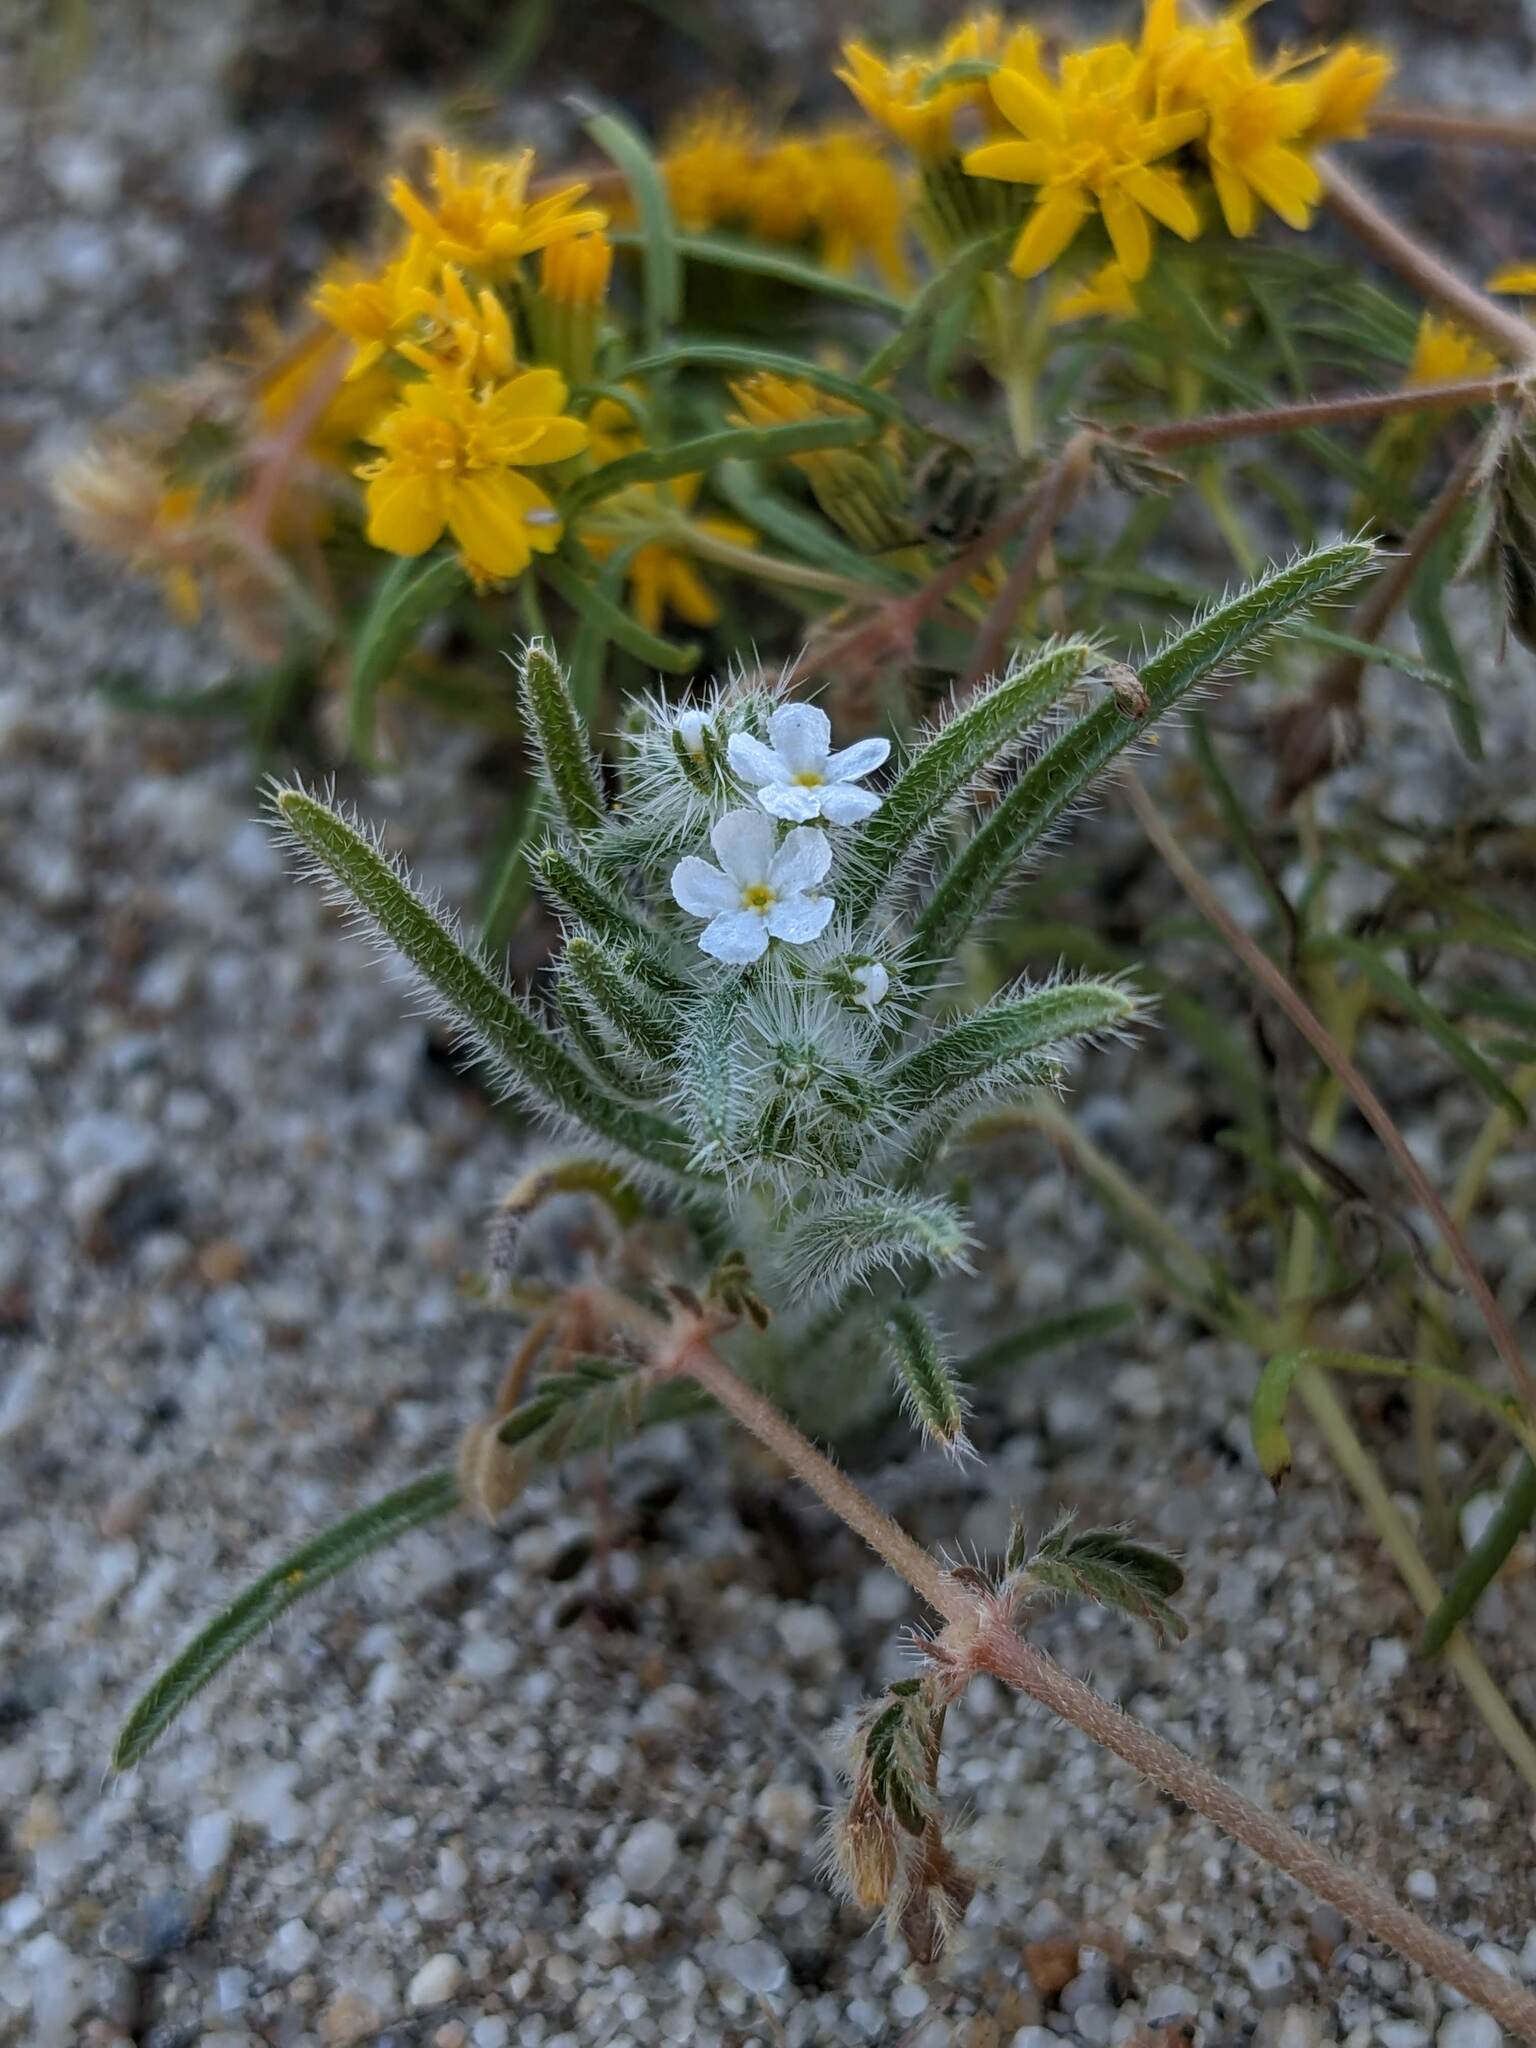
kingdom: Plantae
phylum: Tracheophyta
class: Magnoliopsida
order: Boraginales
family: Boraginaceae
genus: Johnstonella
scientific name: Johnstonella angustifolia
